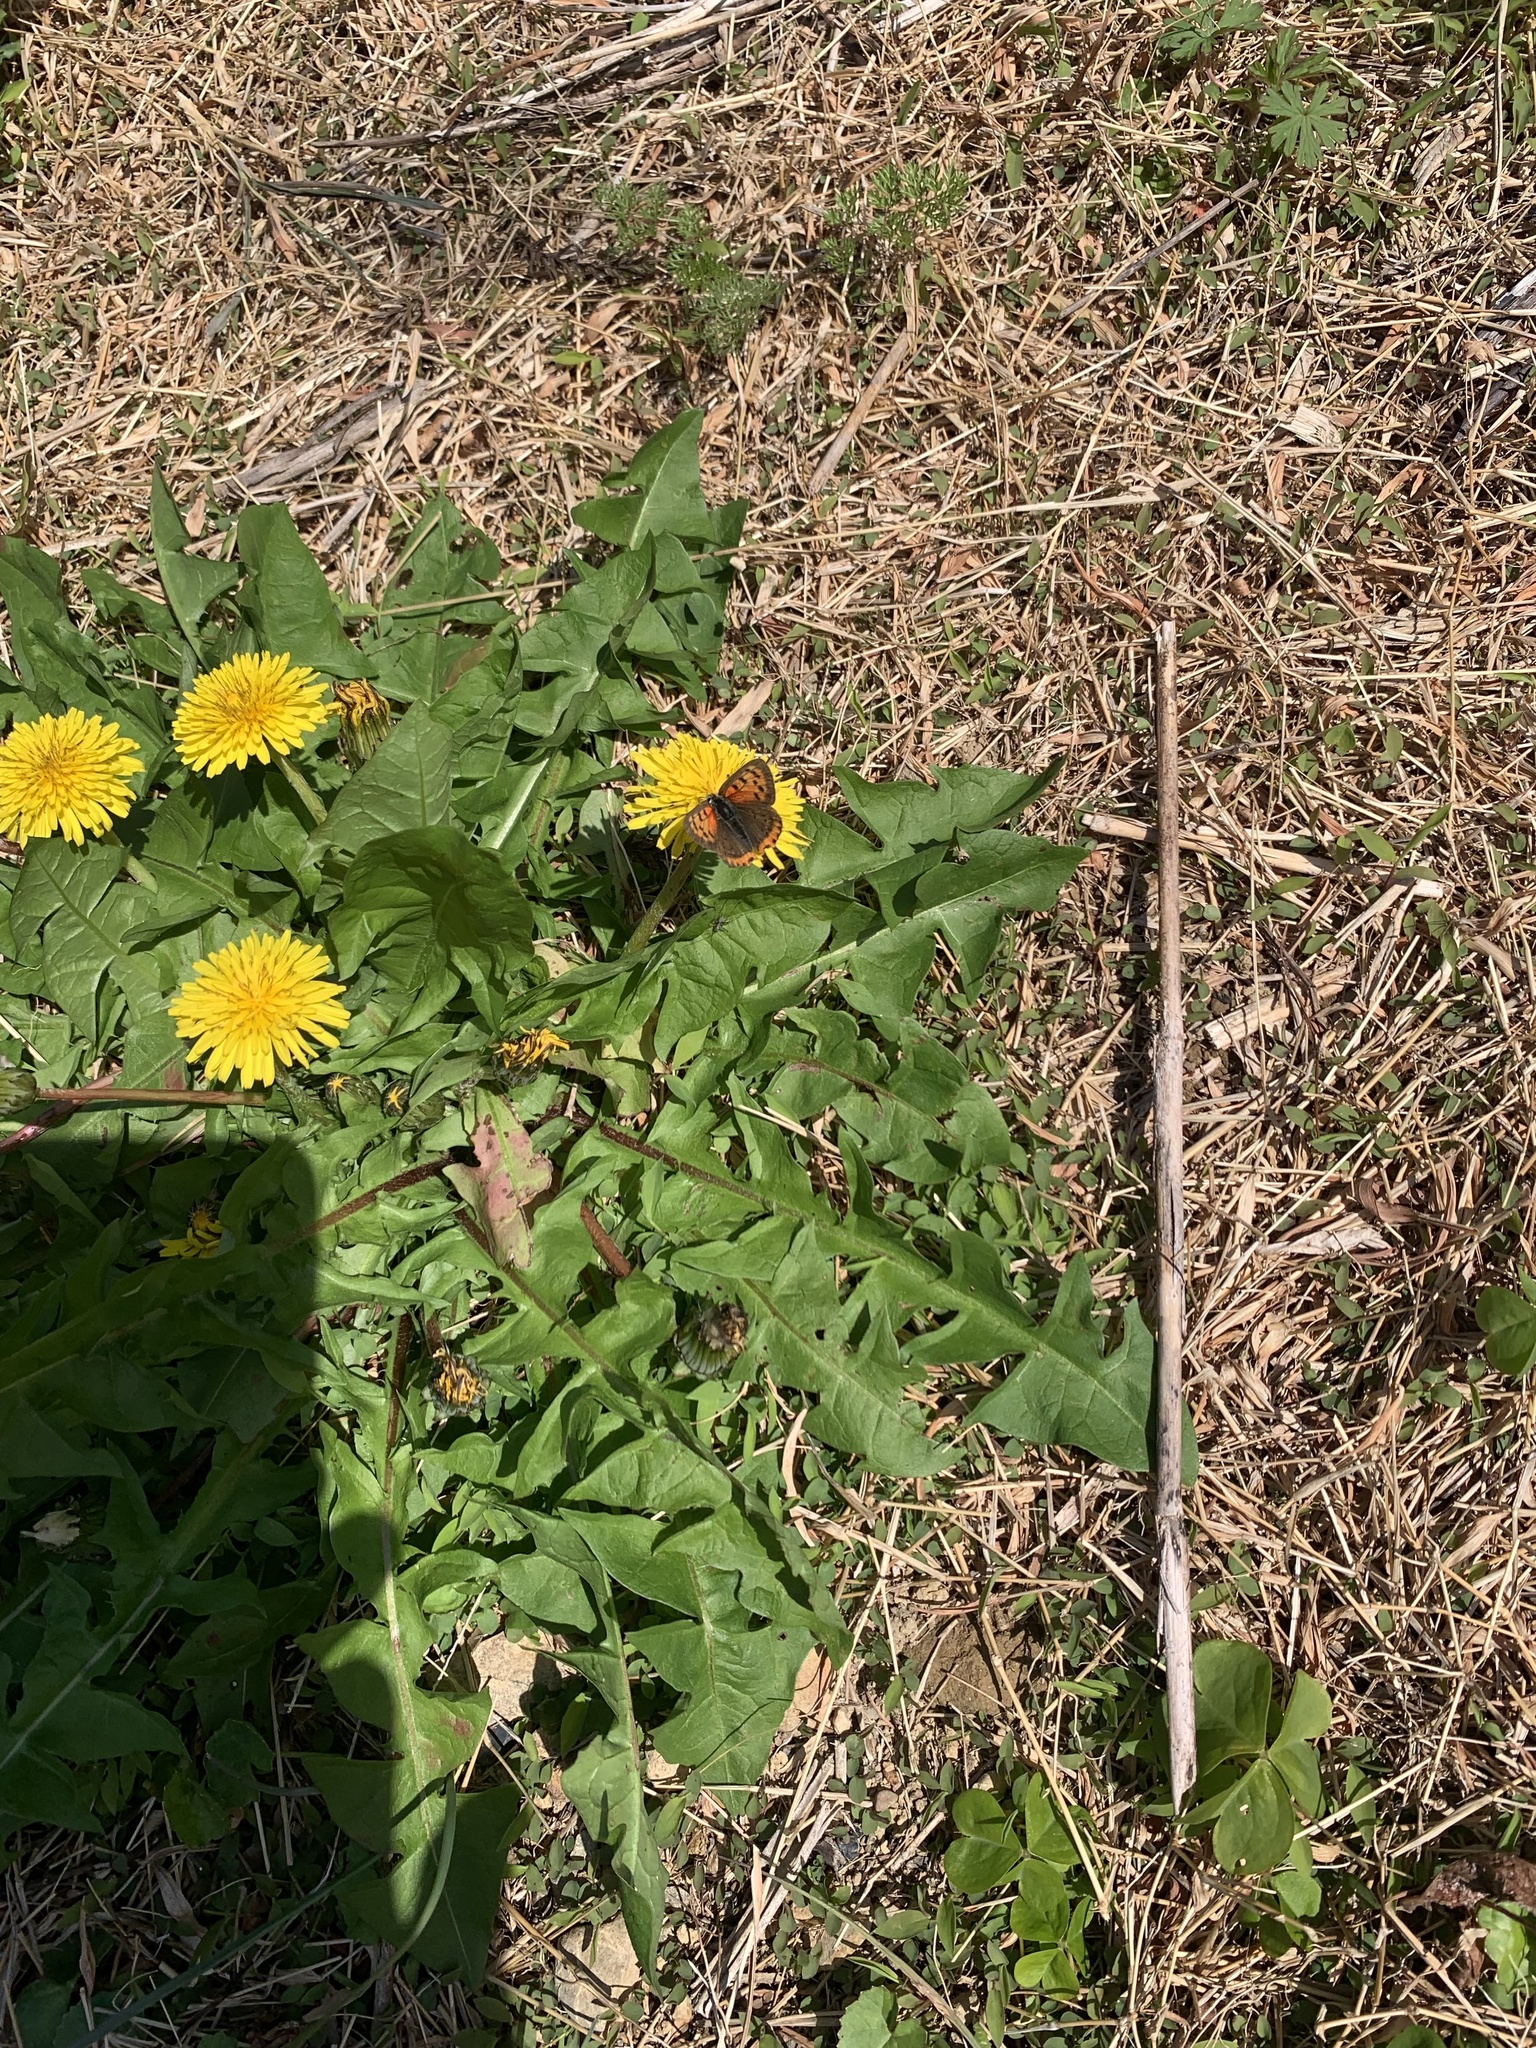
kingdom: Animalia
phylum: Arthropoda
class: Insecta
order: Lepidoptera
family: Lycaenidae
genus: Lycaena
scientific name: Lycaena phlaeas
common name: Small copper
